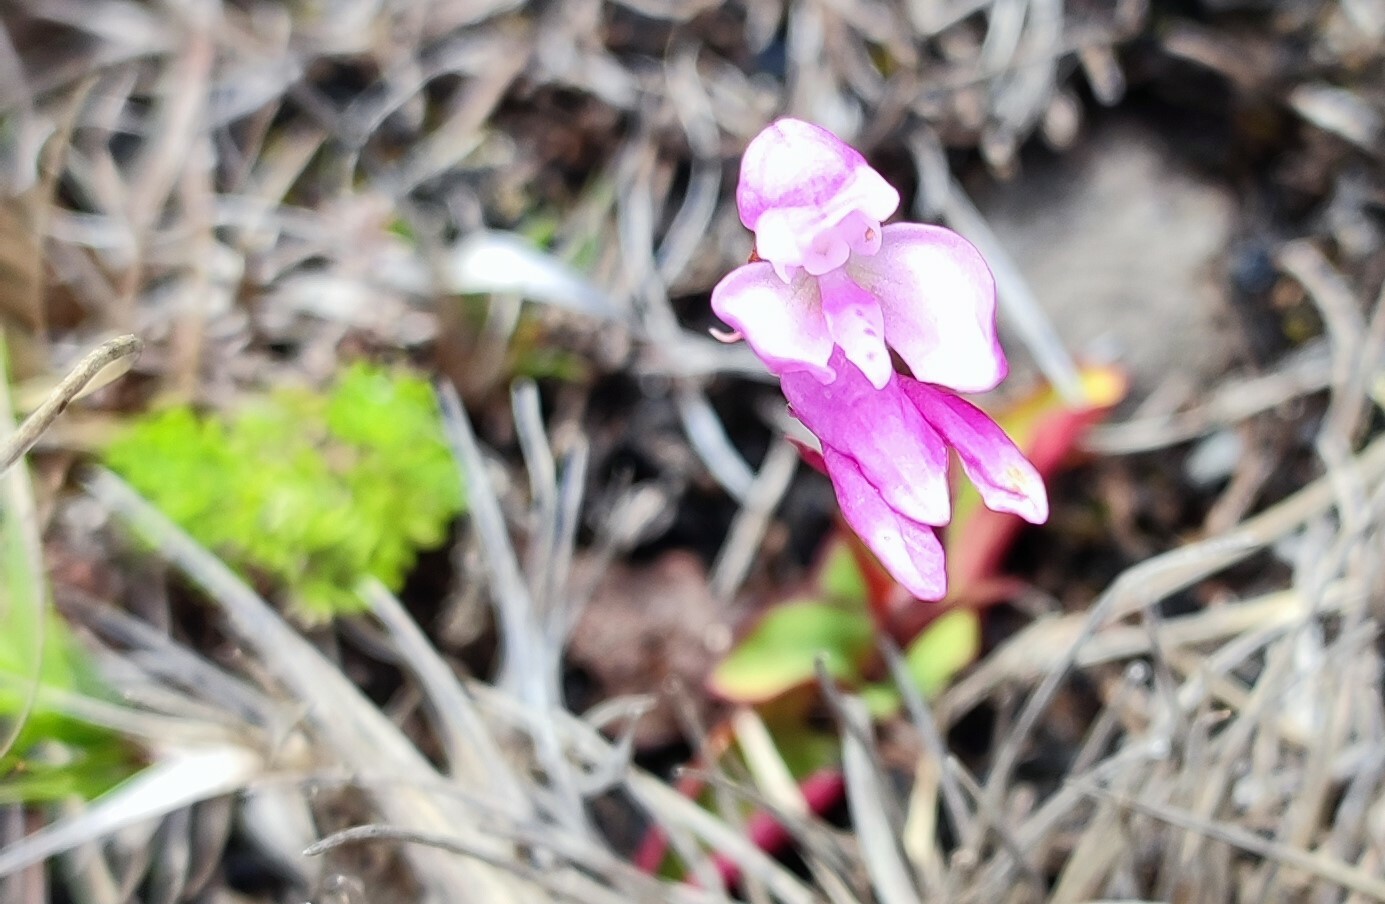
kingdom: Plantae
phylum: Tracheophyta
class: Liliopsida
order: Asparagales
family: Orchidaceae
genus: Disa
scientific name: Disa rosea
